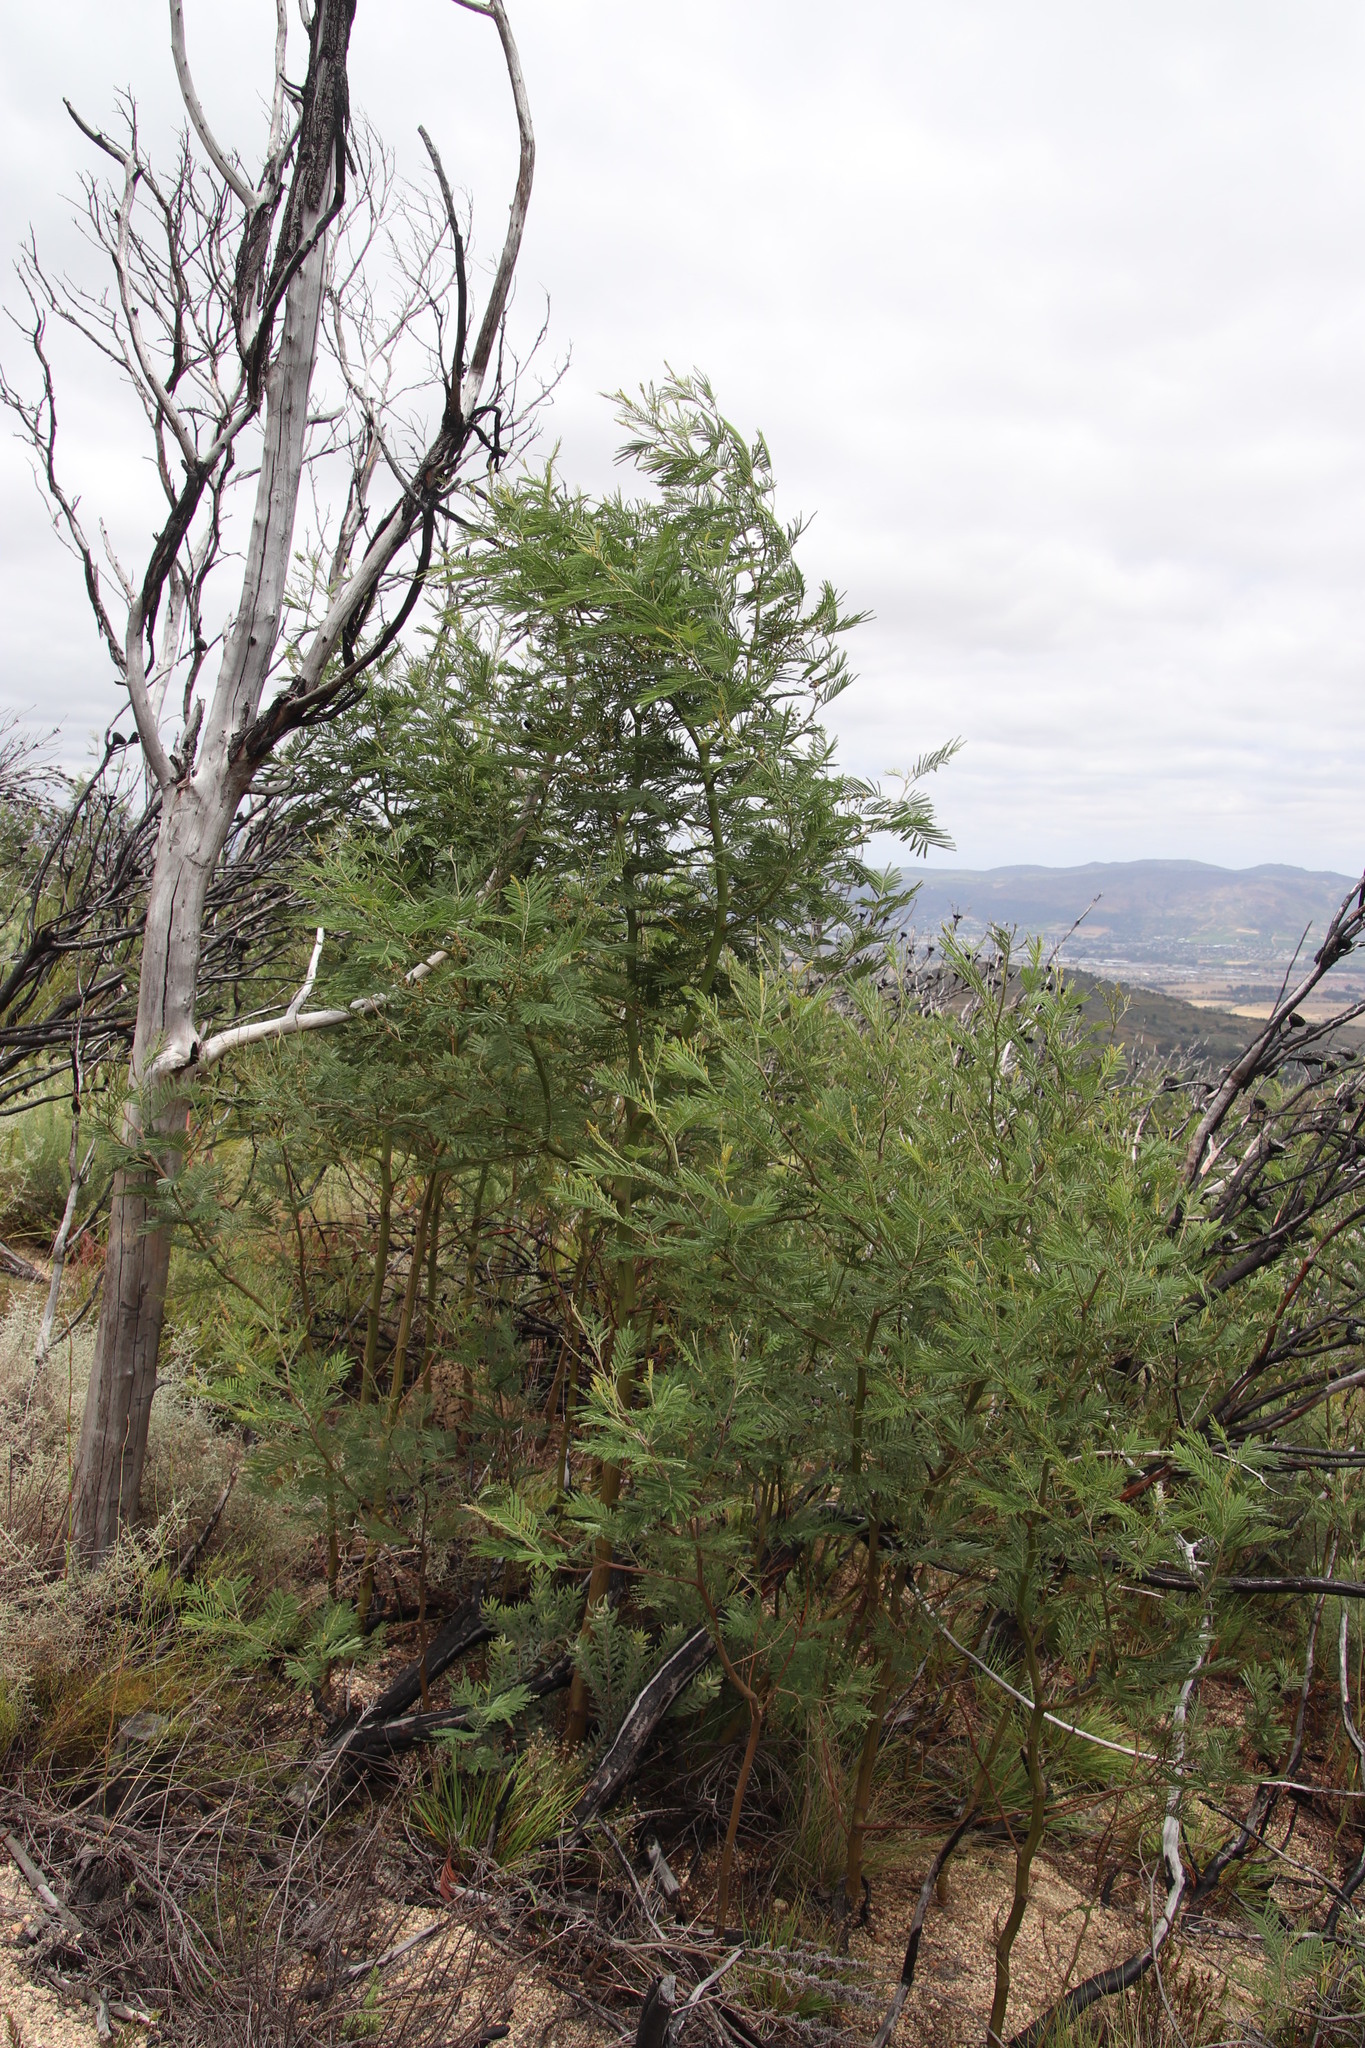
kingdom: Plantae
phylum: Tracheophyta
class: Magnoliopsida
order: Fabales
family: Fabaceae
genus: Acacia
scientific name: Acacia mearnsii
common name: Black wattle
